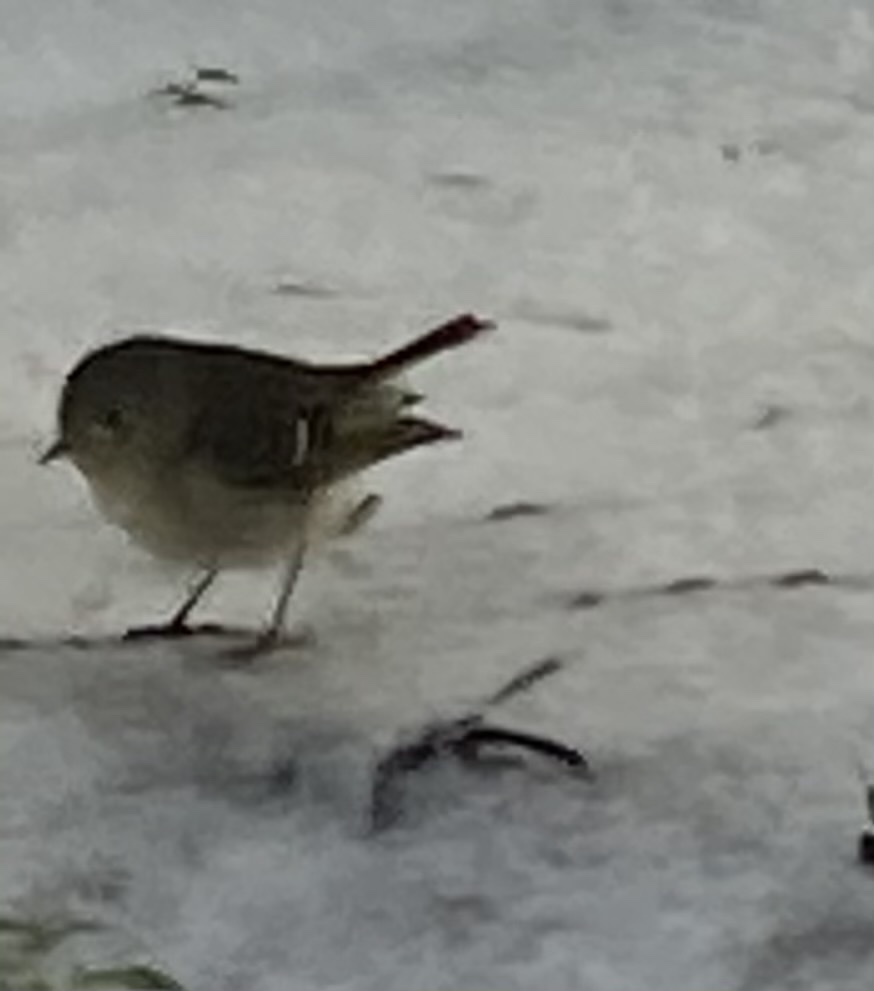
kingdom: Animalia
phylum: Chordata
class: Aves
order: Passeriformes
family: Regulidae
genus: Regulus
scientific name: Regulus calendula
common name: Ruby-crowned kinglet
